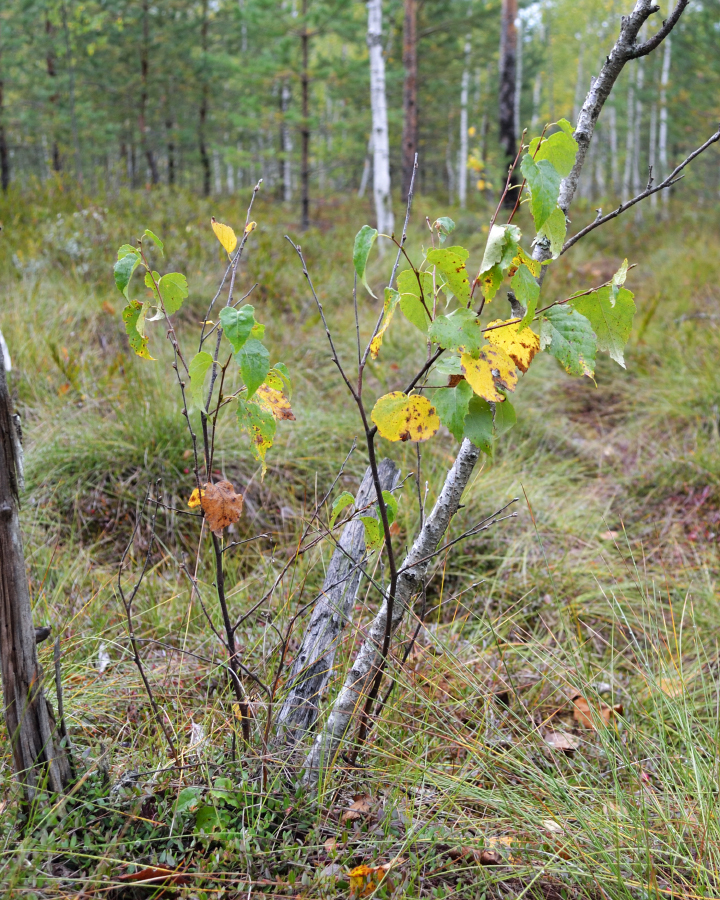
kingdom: Plantae
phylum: Tracheophyta
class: Magnoliopsida
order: Fagales
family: Betulaceae
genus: Betula
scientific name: Betula pubescens
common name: Downy birch
